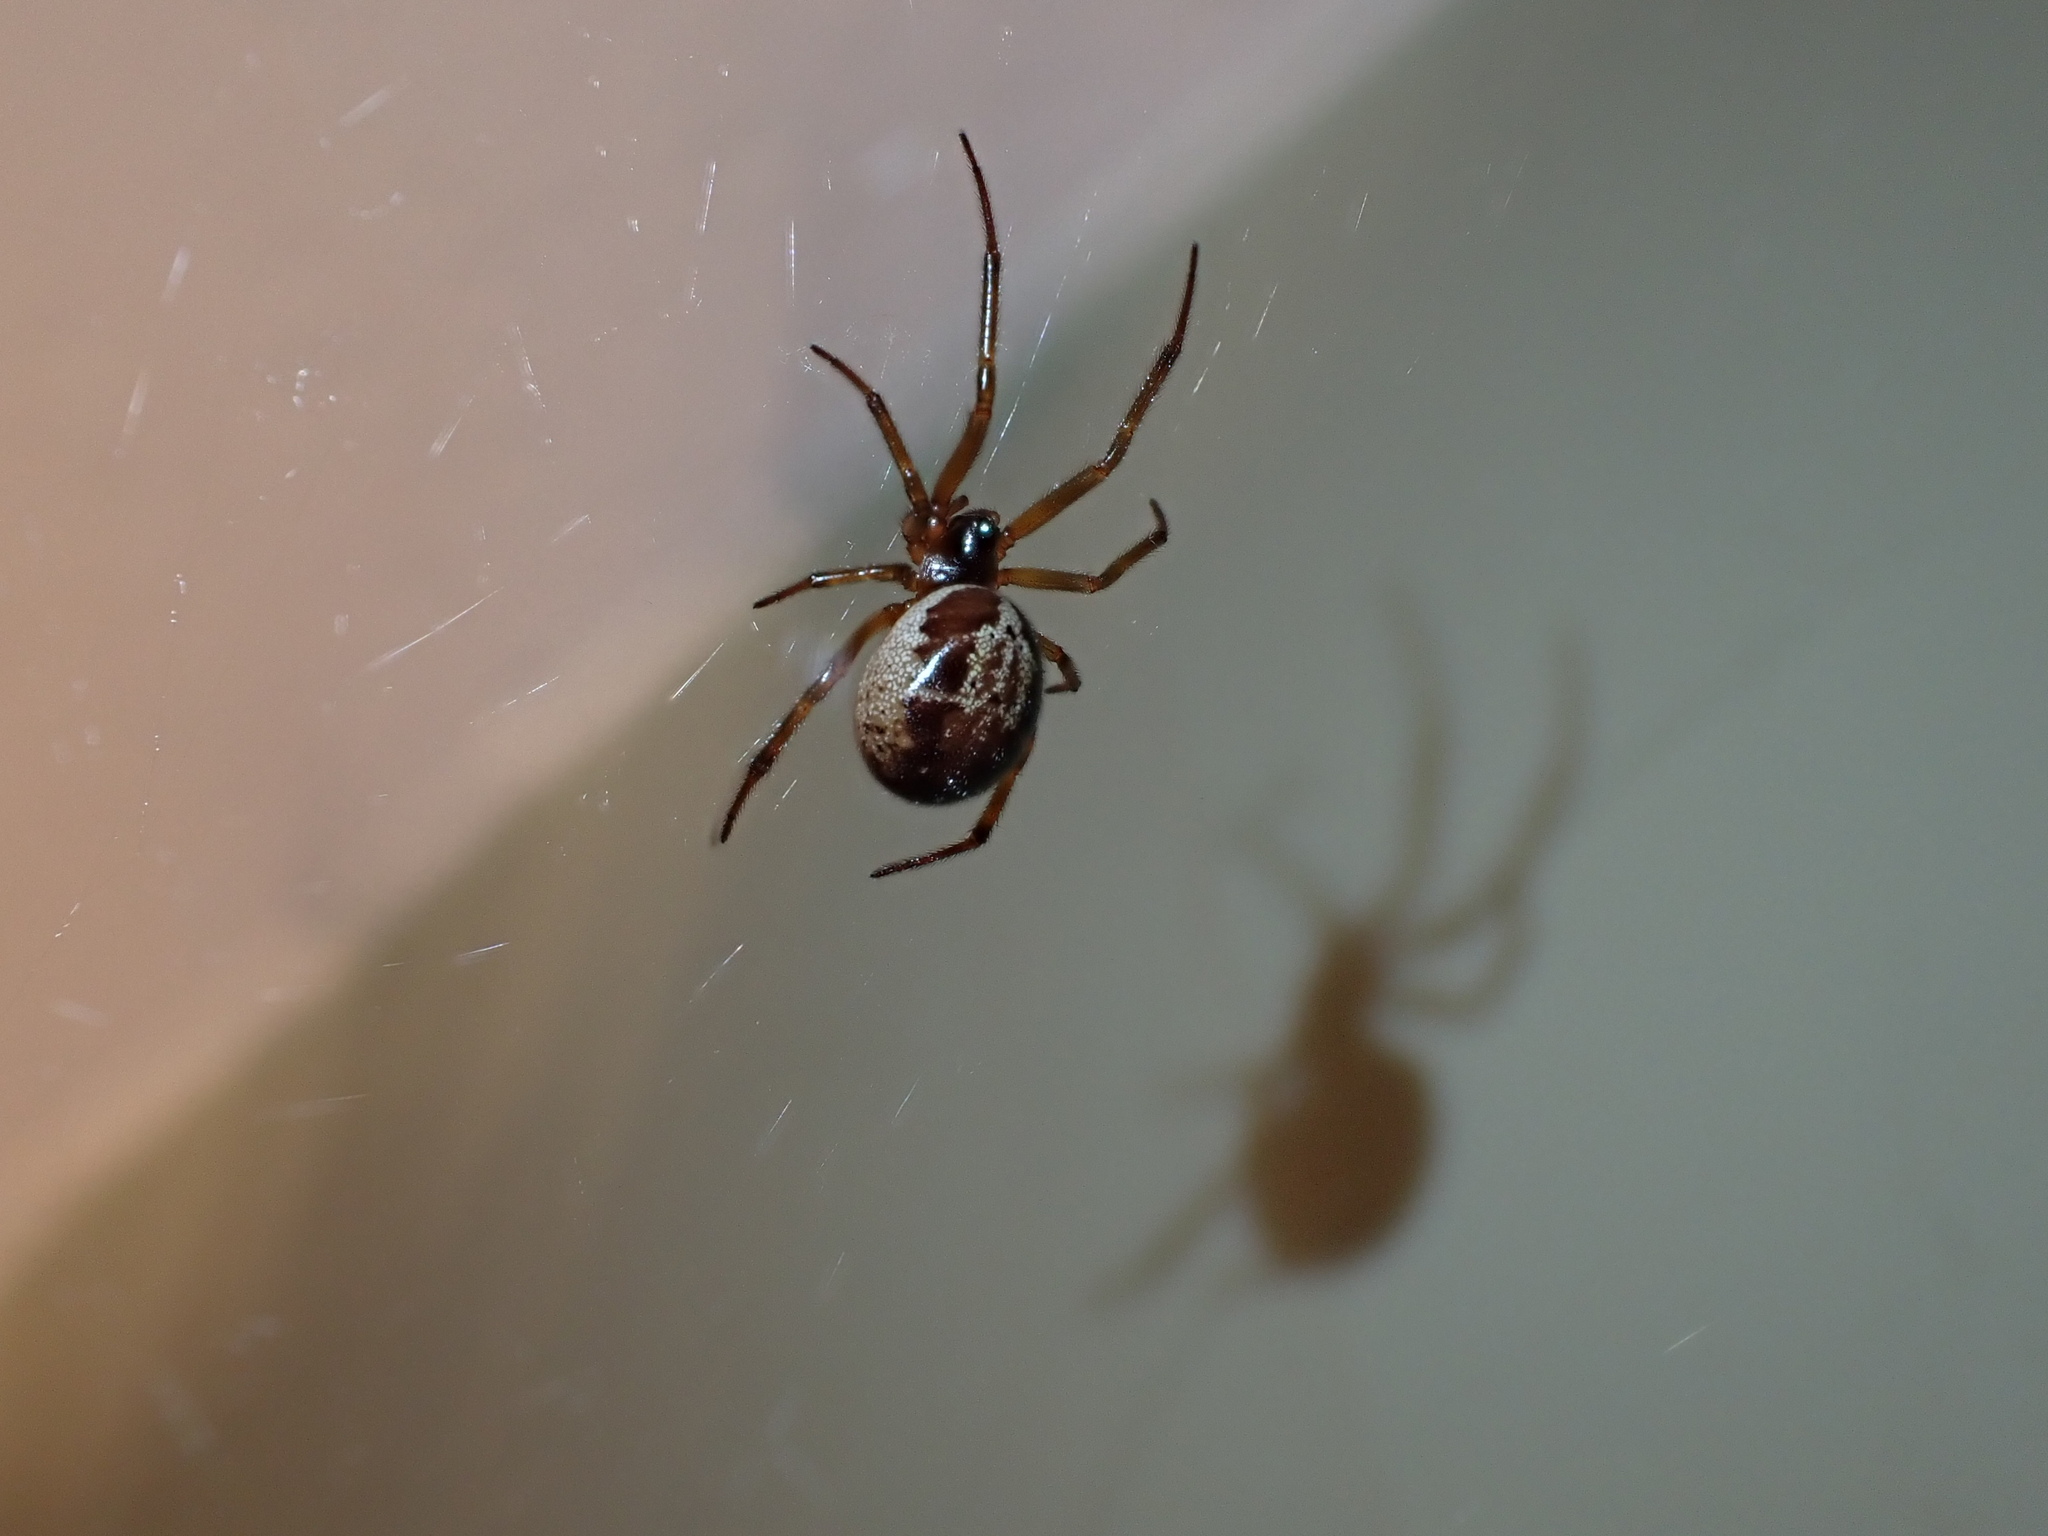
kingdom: Animalia
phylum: Arthropoda
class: Arachnida
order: Araneae
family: Theridiidae
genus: Steatoda
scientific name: Steatoda nobilis
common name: Cobweb weaver
